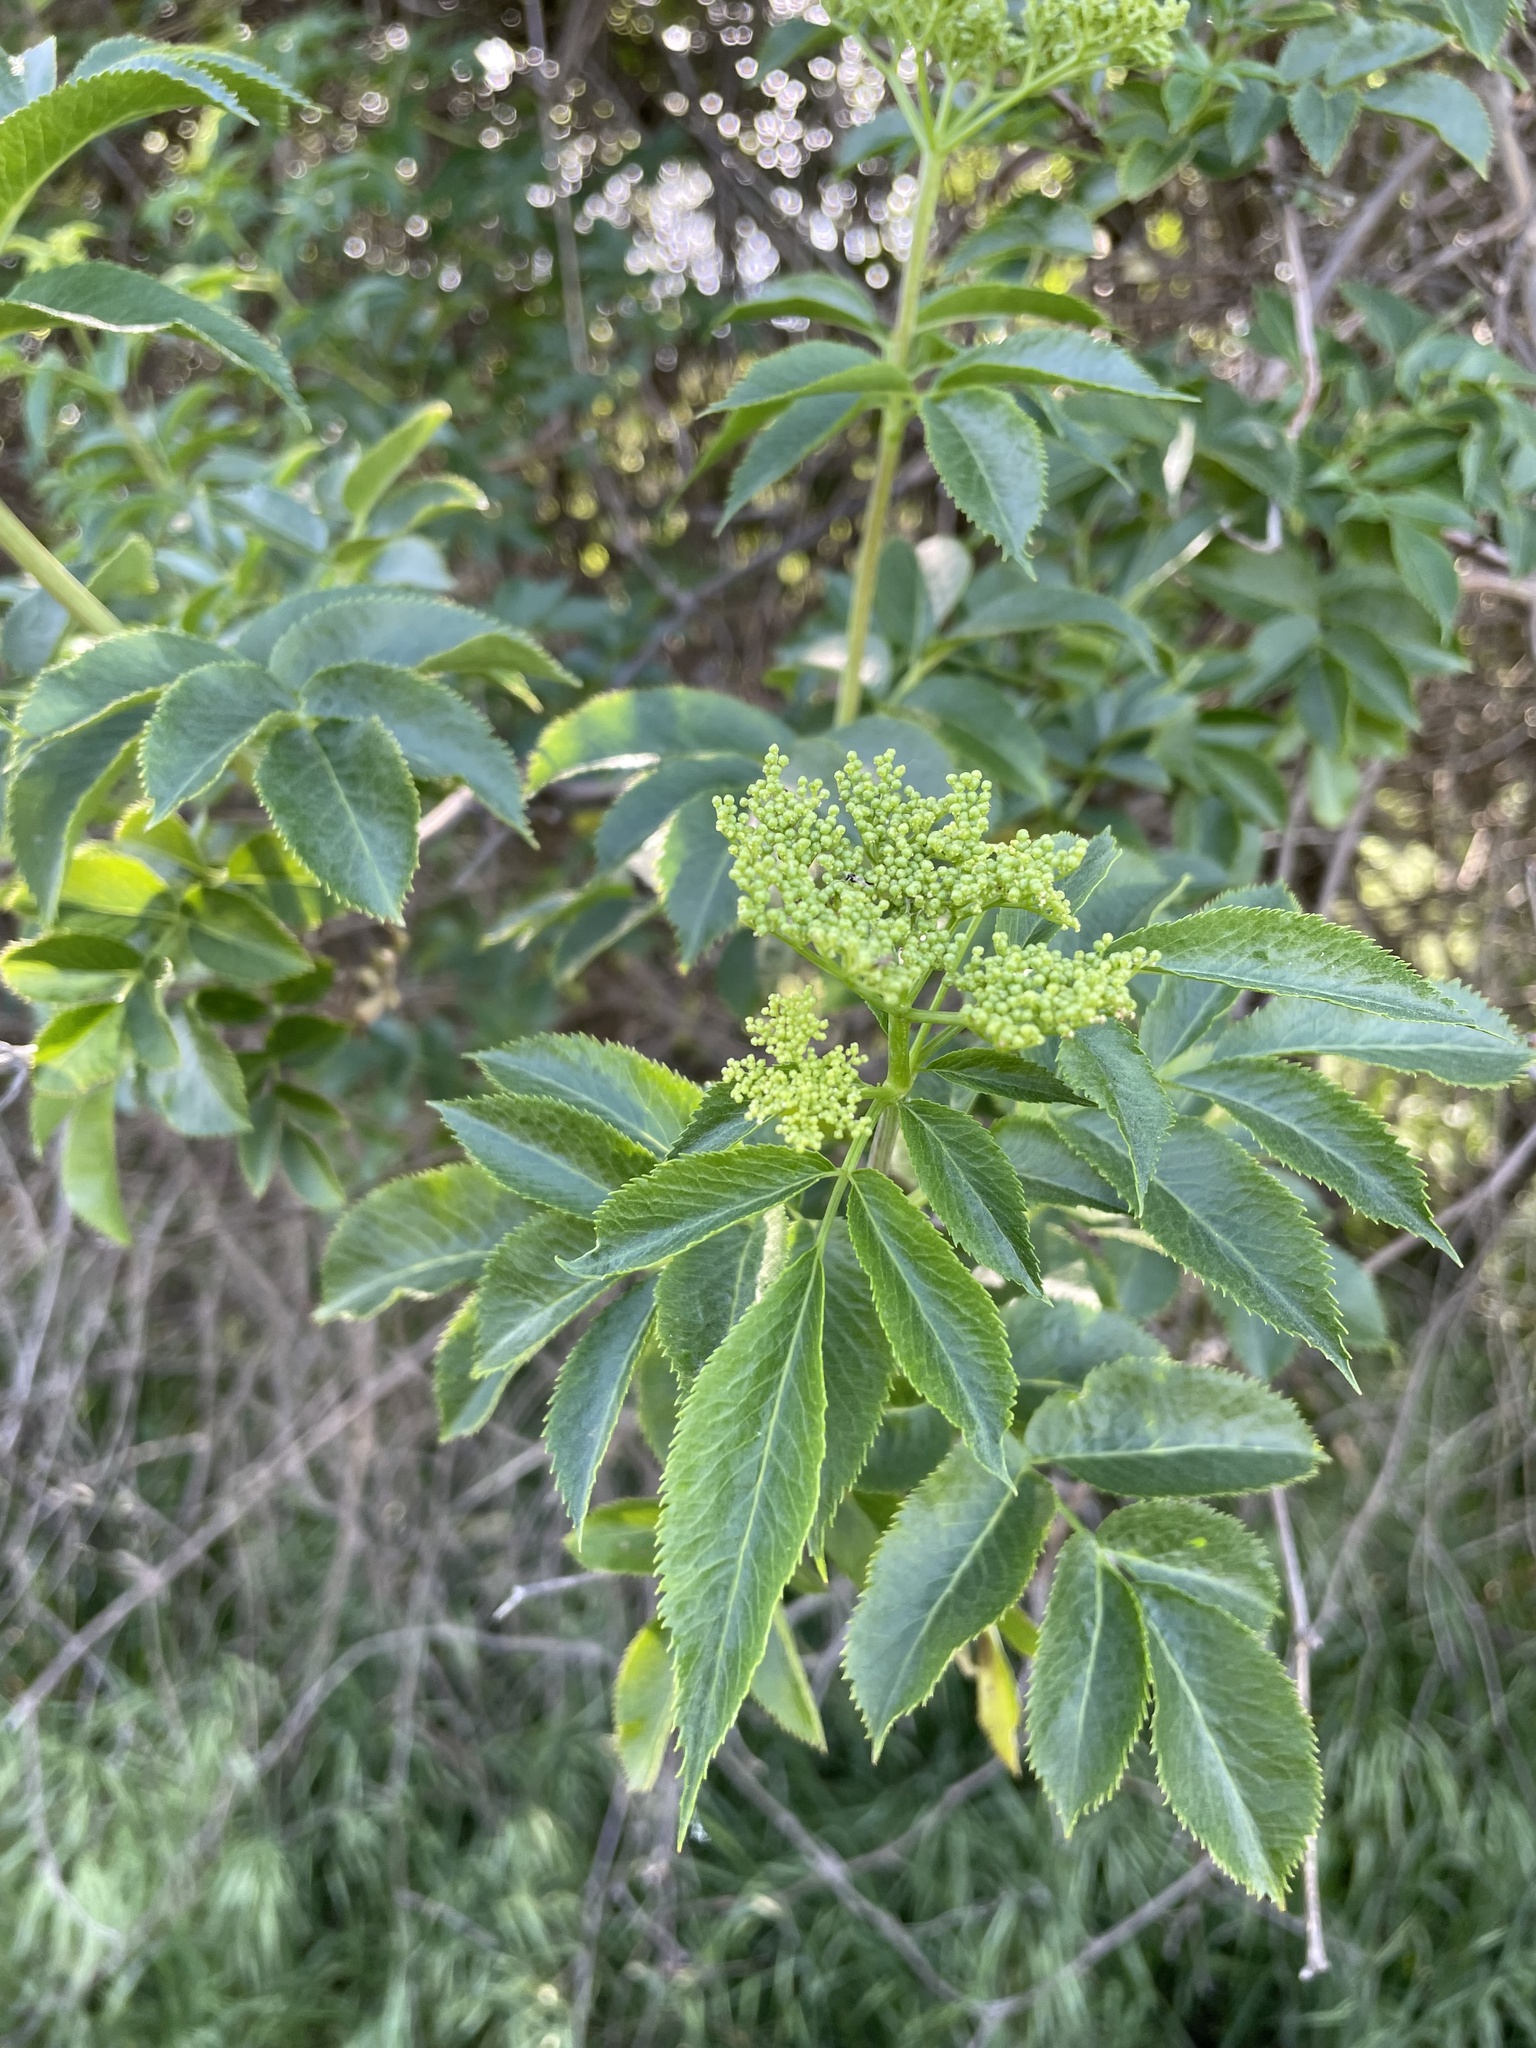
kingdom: Plantae
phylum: Tracheophyta
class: Magnoliopsida
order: Dipsacales
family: Viburnaceae
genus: Sambucus
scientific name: Sambucus cerulea
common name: Blue elder
